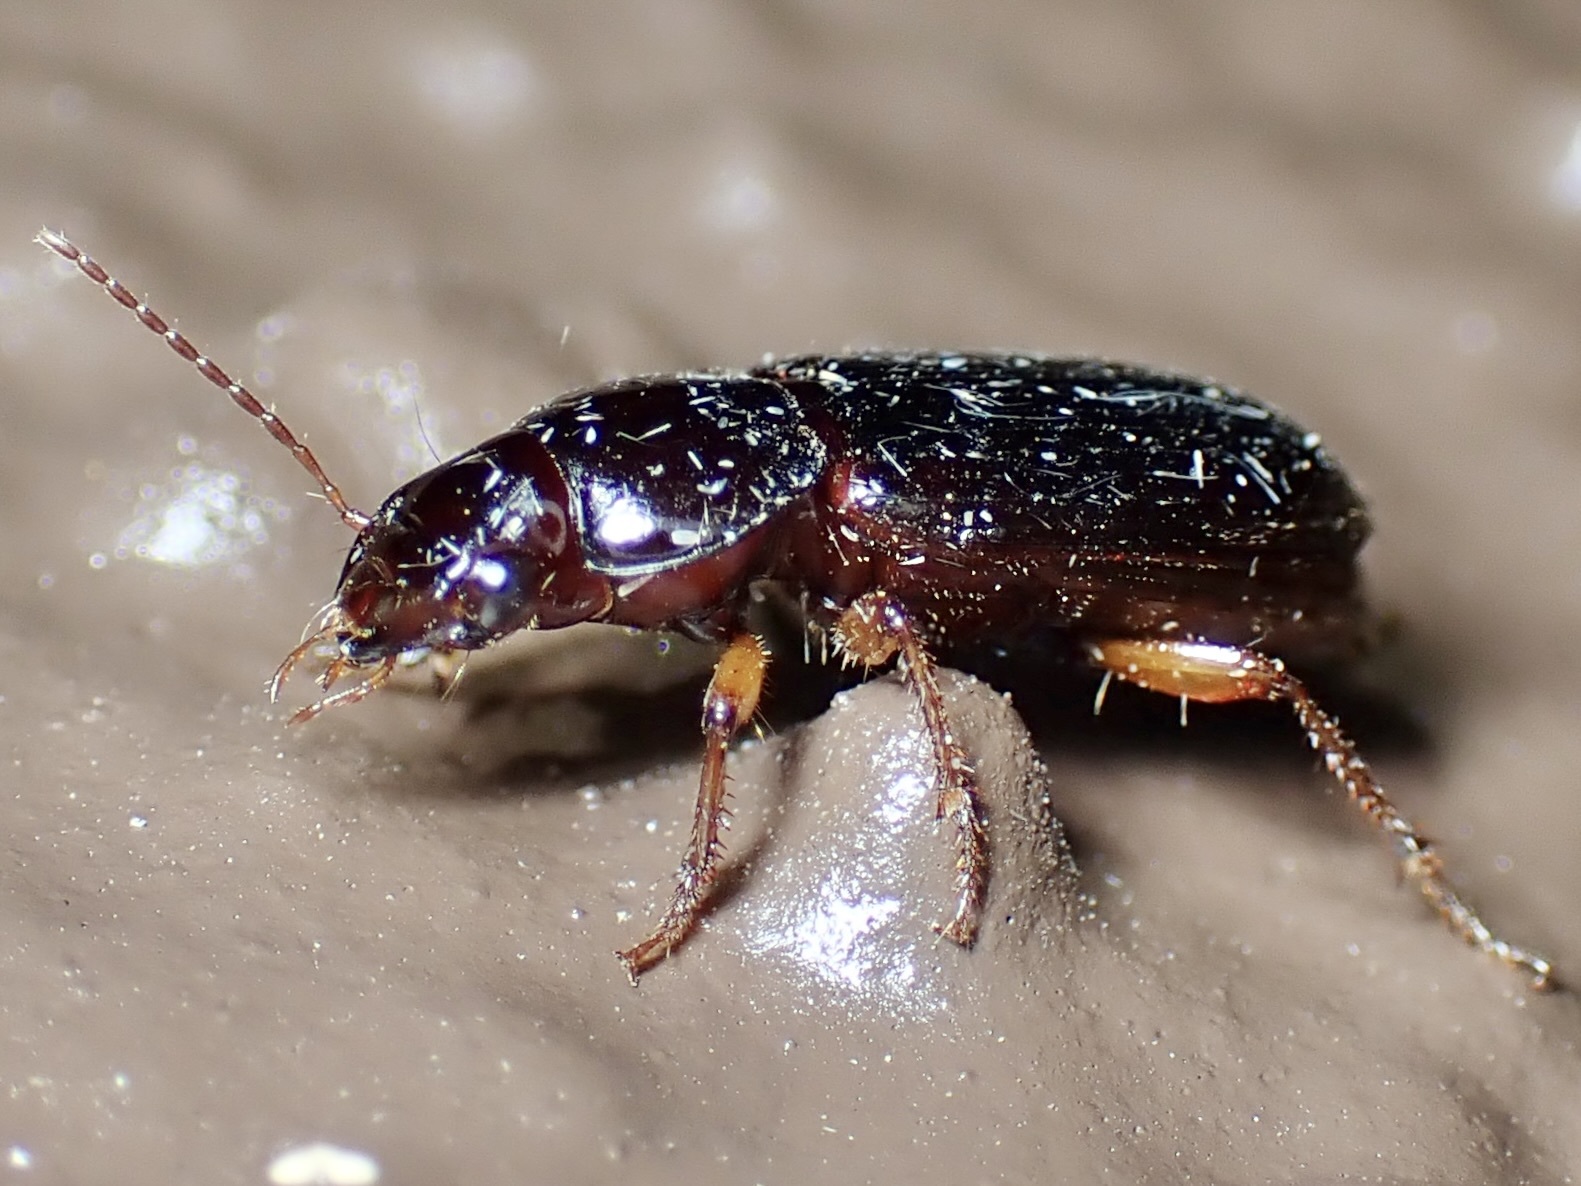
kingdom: Animalia
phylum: Arthropoda
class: Insecta
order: Coleoptera
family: Carabidae
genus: Discoderus
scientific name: Discoderus obsidianus
